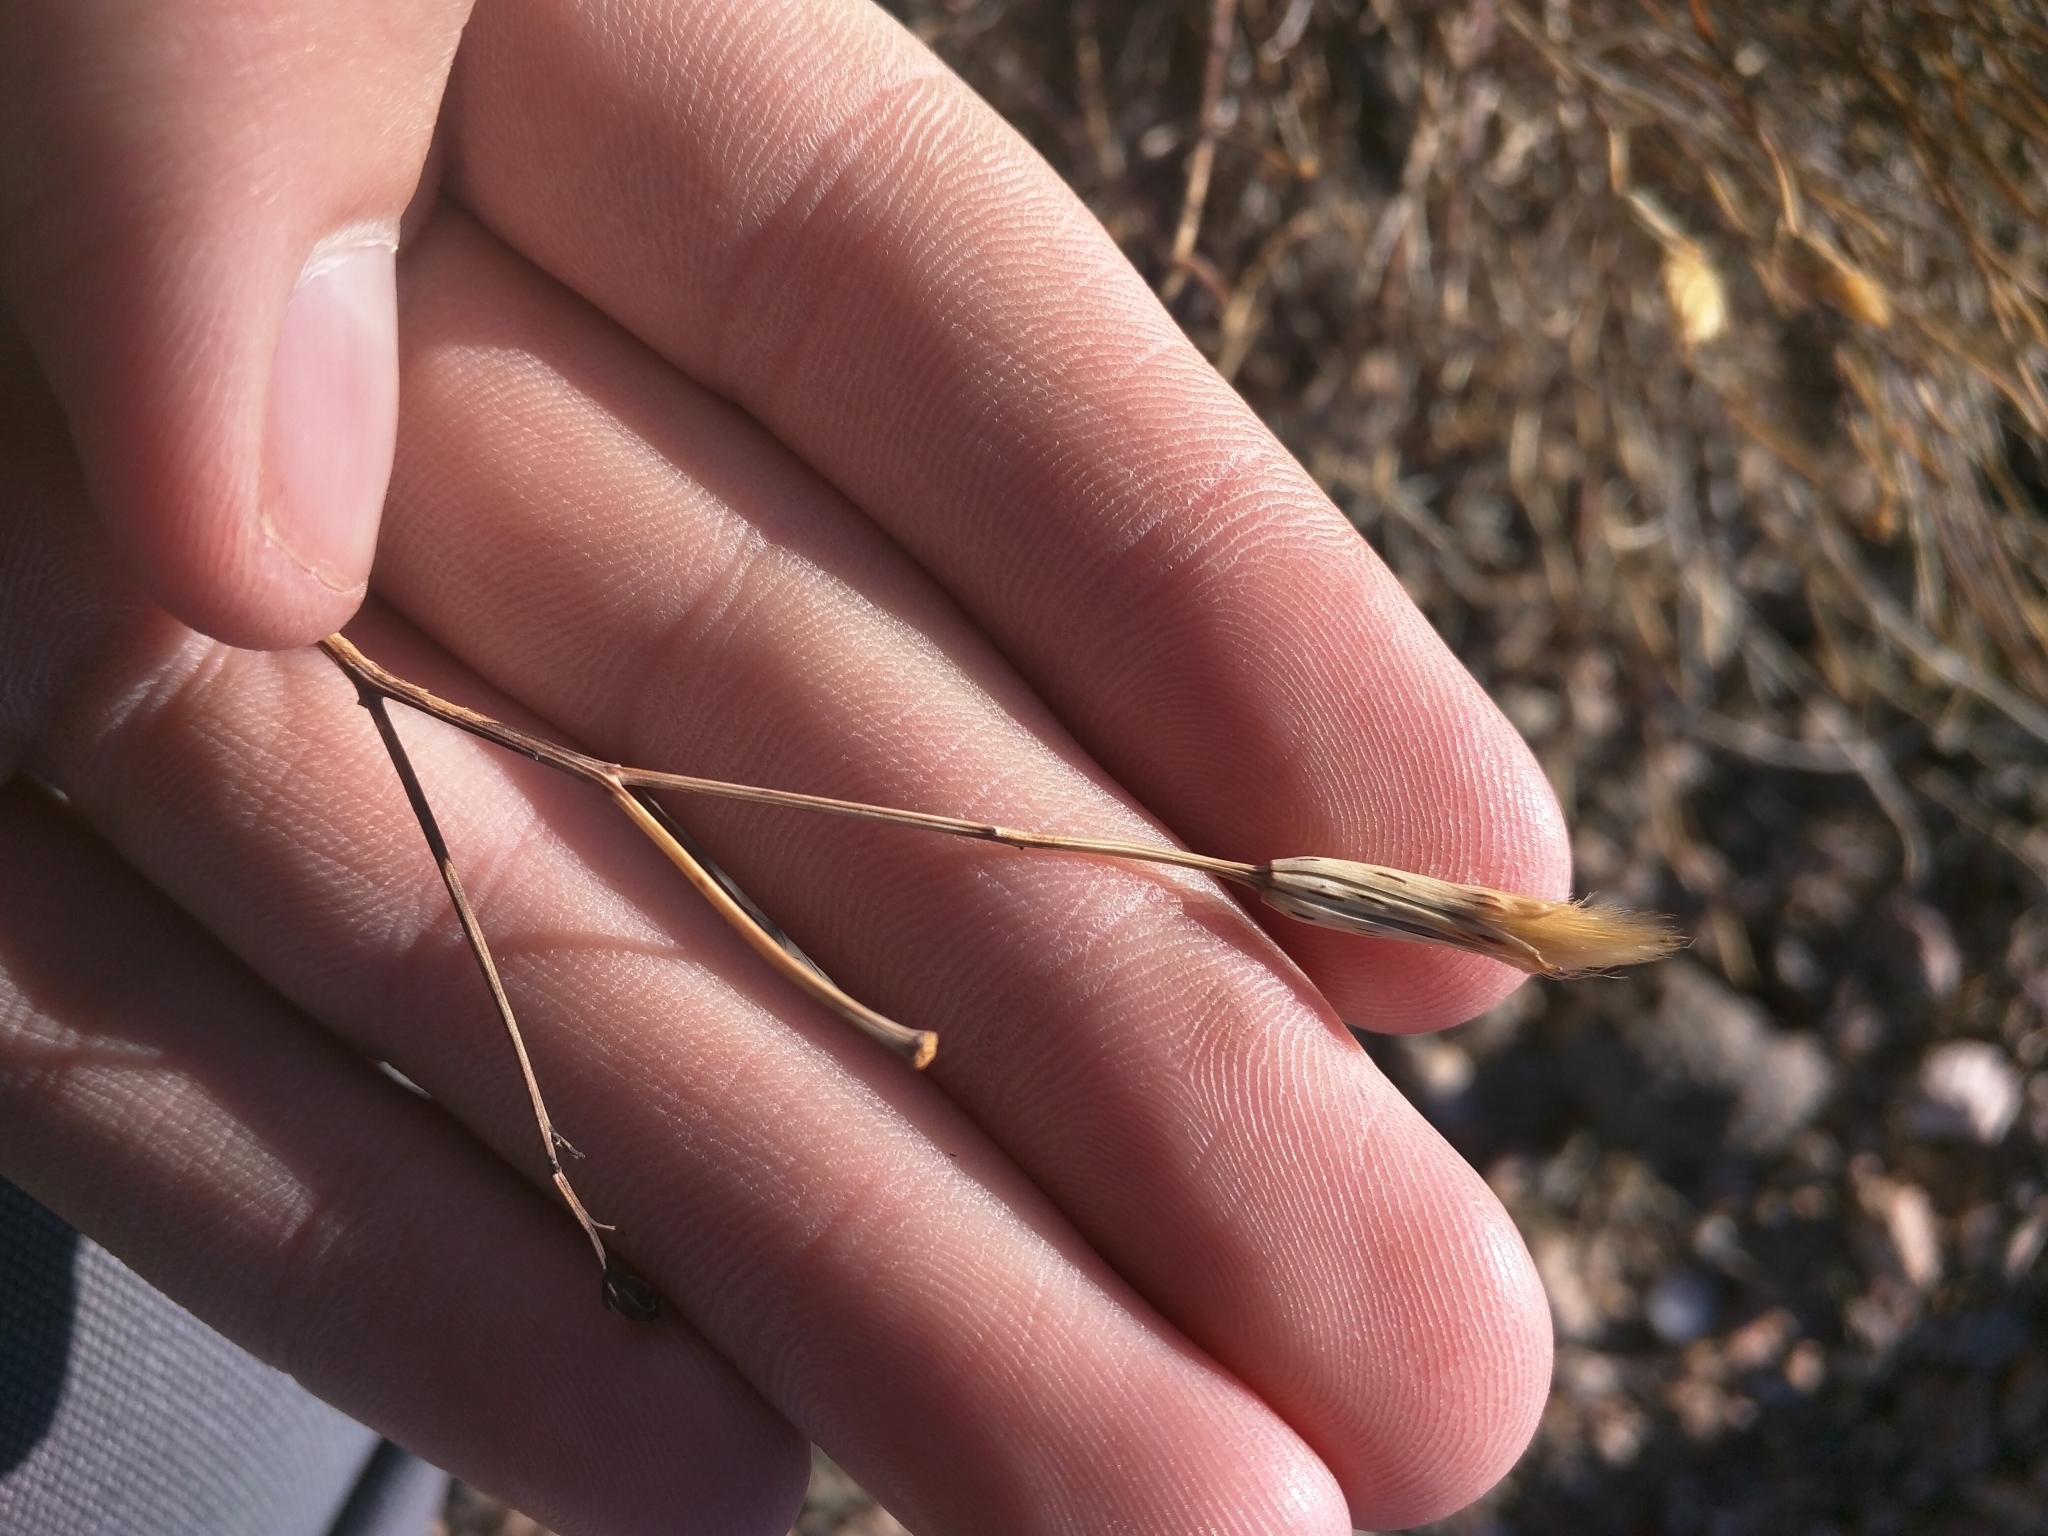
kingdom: Plantae
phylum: Tracheophyta
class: Magnoliopsida
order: Asterales
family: Asteraceae
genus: Porophyllum
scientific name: Porophyllum gracile
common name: Odora
